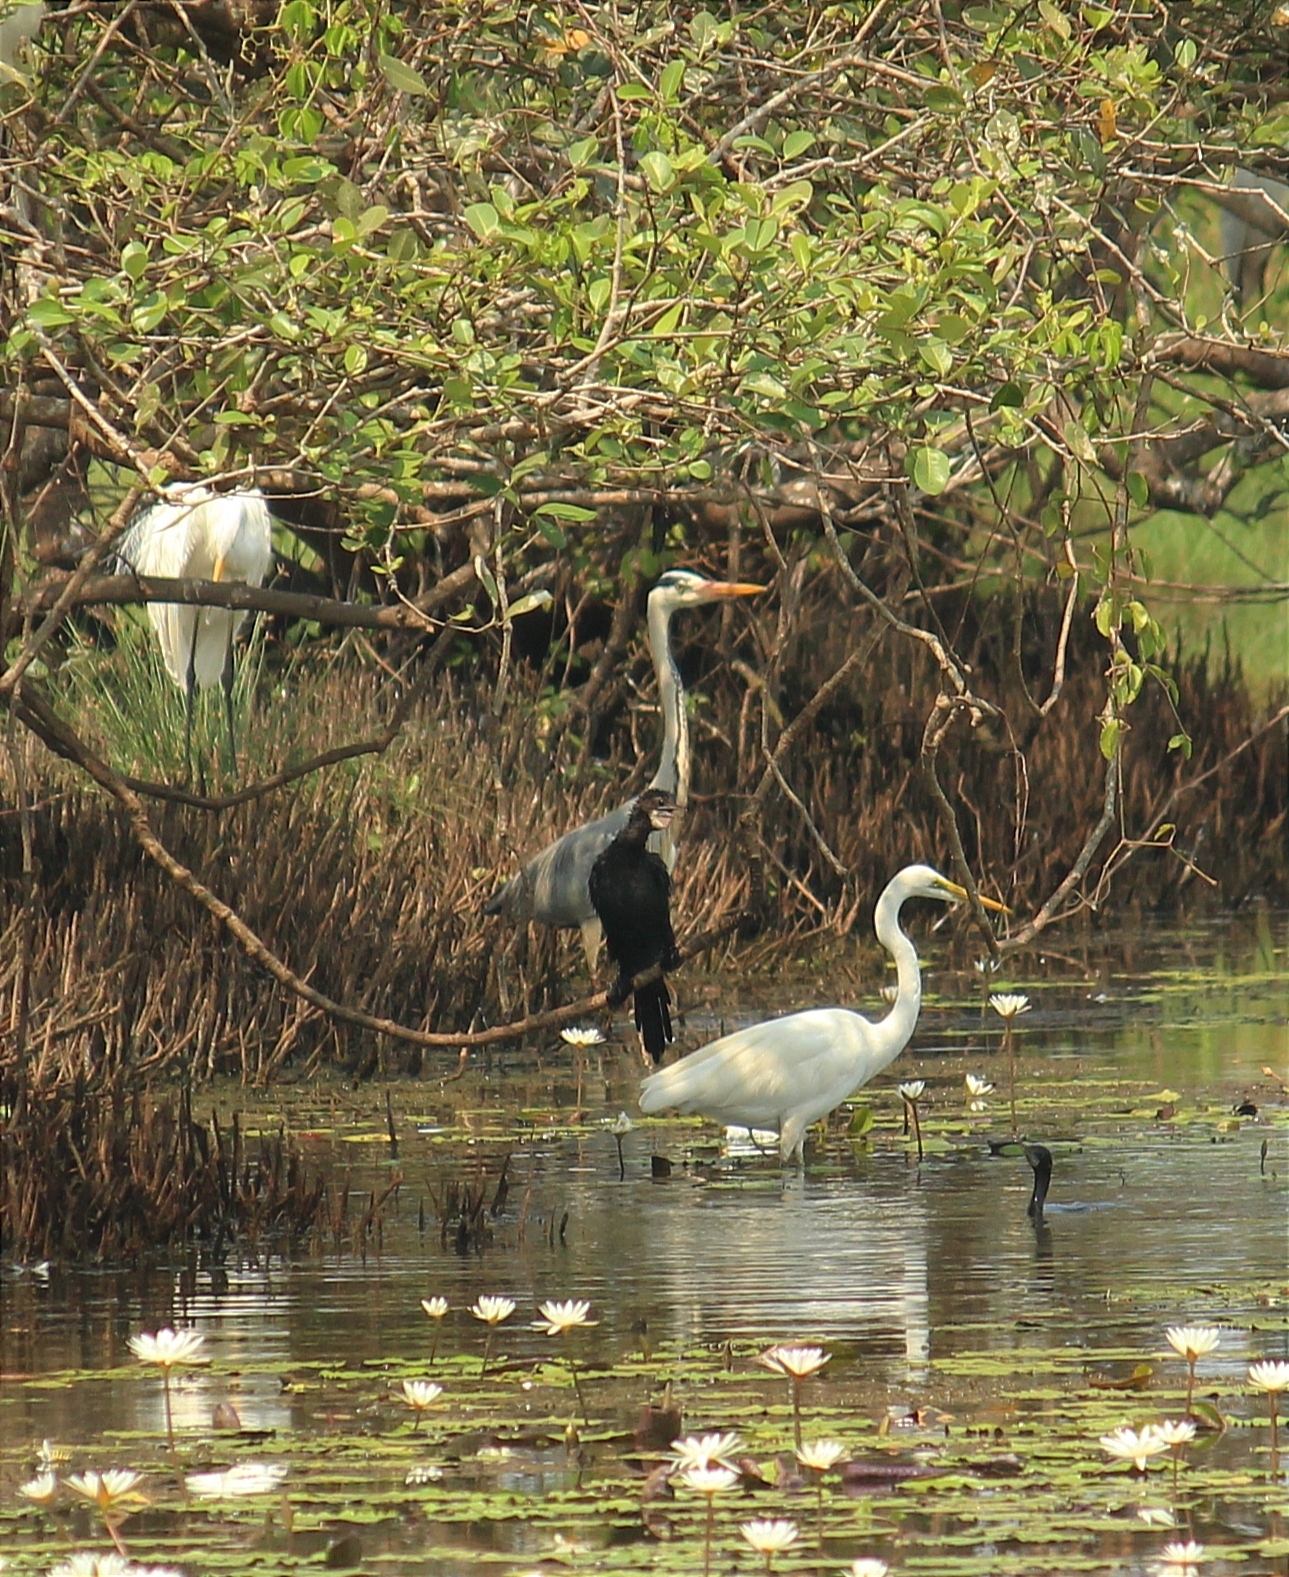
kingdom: Animalia
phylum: Chordata
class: Aves
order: Pelecaniformes
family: Ardeidae
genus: Ardea
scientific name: Ardea cinerea
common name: Grey heron
